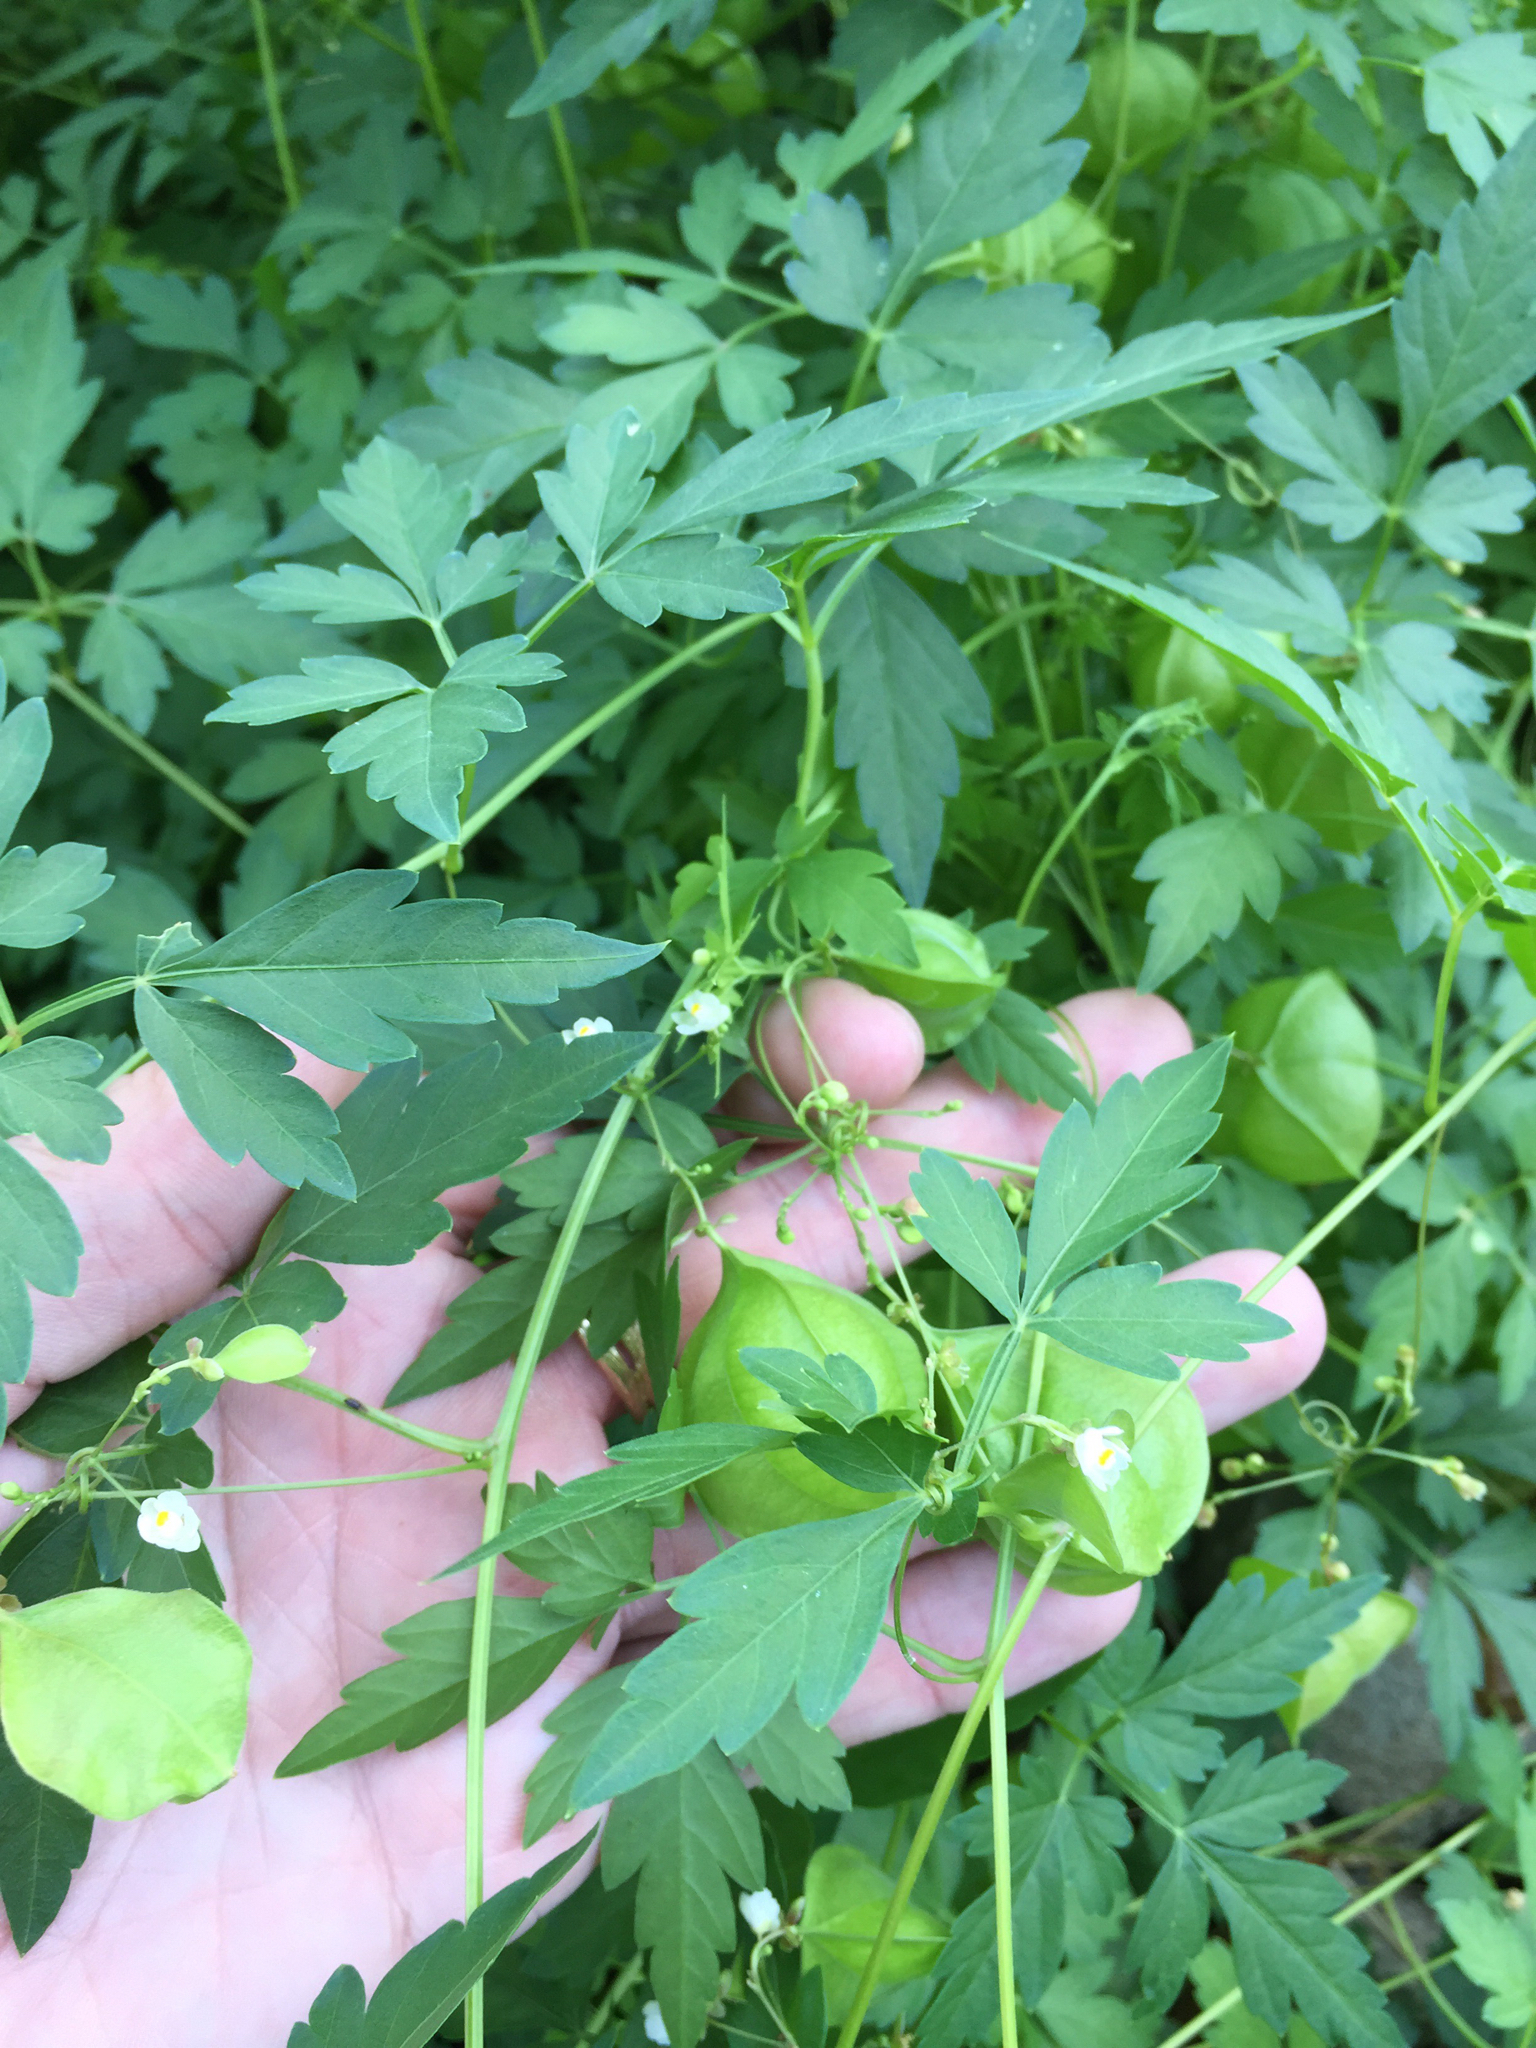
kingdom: Plantae
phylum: Tracheophyta
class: Magnoliopsida
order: Sapindales
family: Sapindaceae
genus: Cardiospermum
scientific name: Cardiospermum halicacabum
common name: Balloon vine
